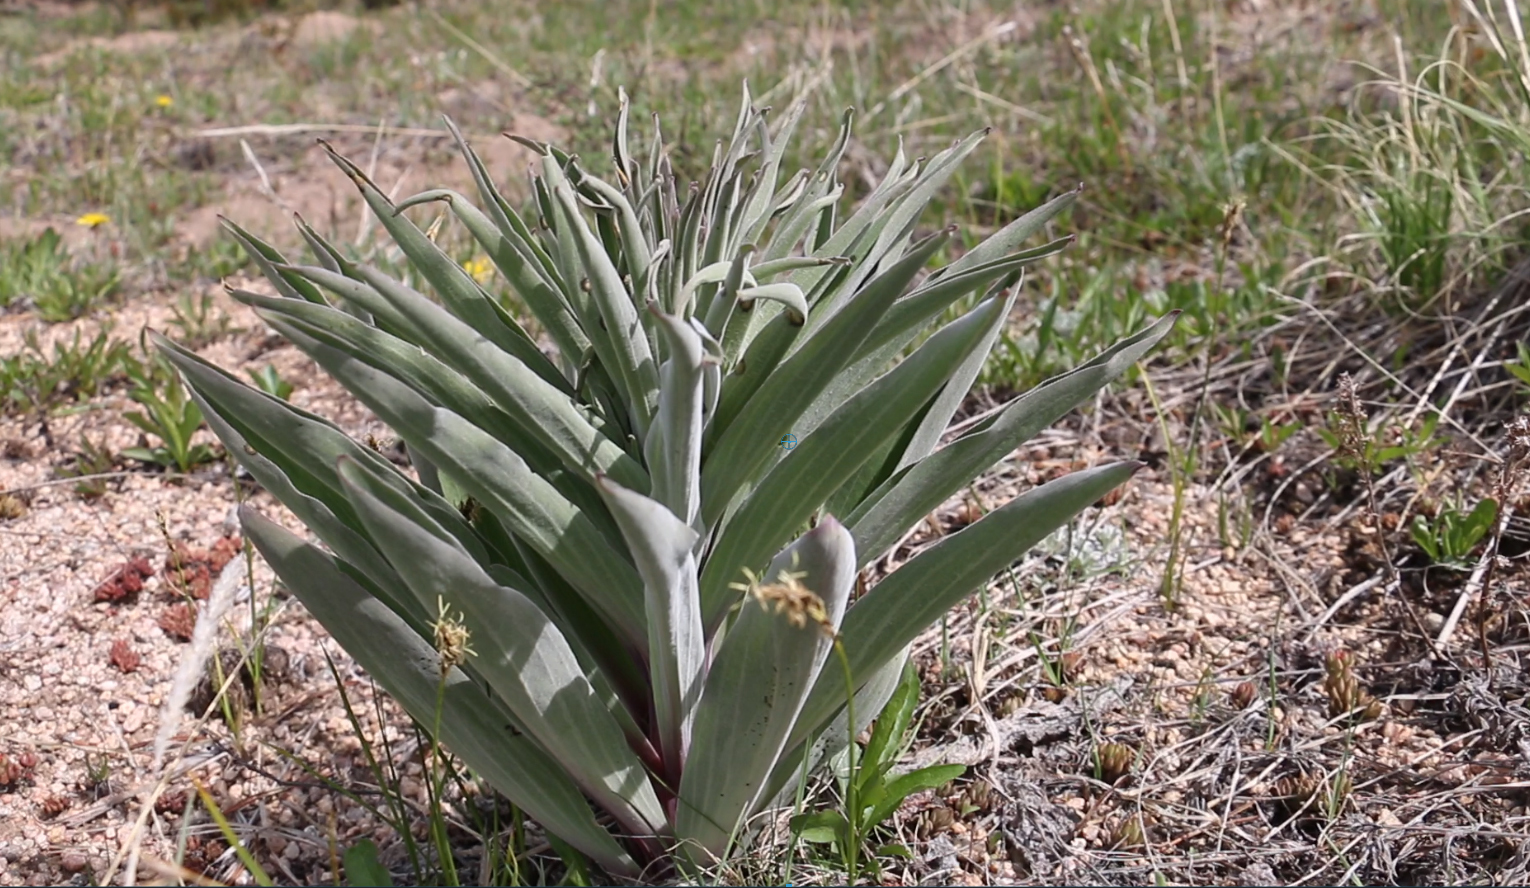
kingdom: Plantae
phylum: Tracheophyta
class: Magnoliopsida
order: Gentianales
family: Gentianaceae
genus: Frasera
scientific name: Frasera speciosa
